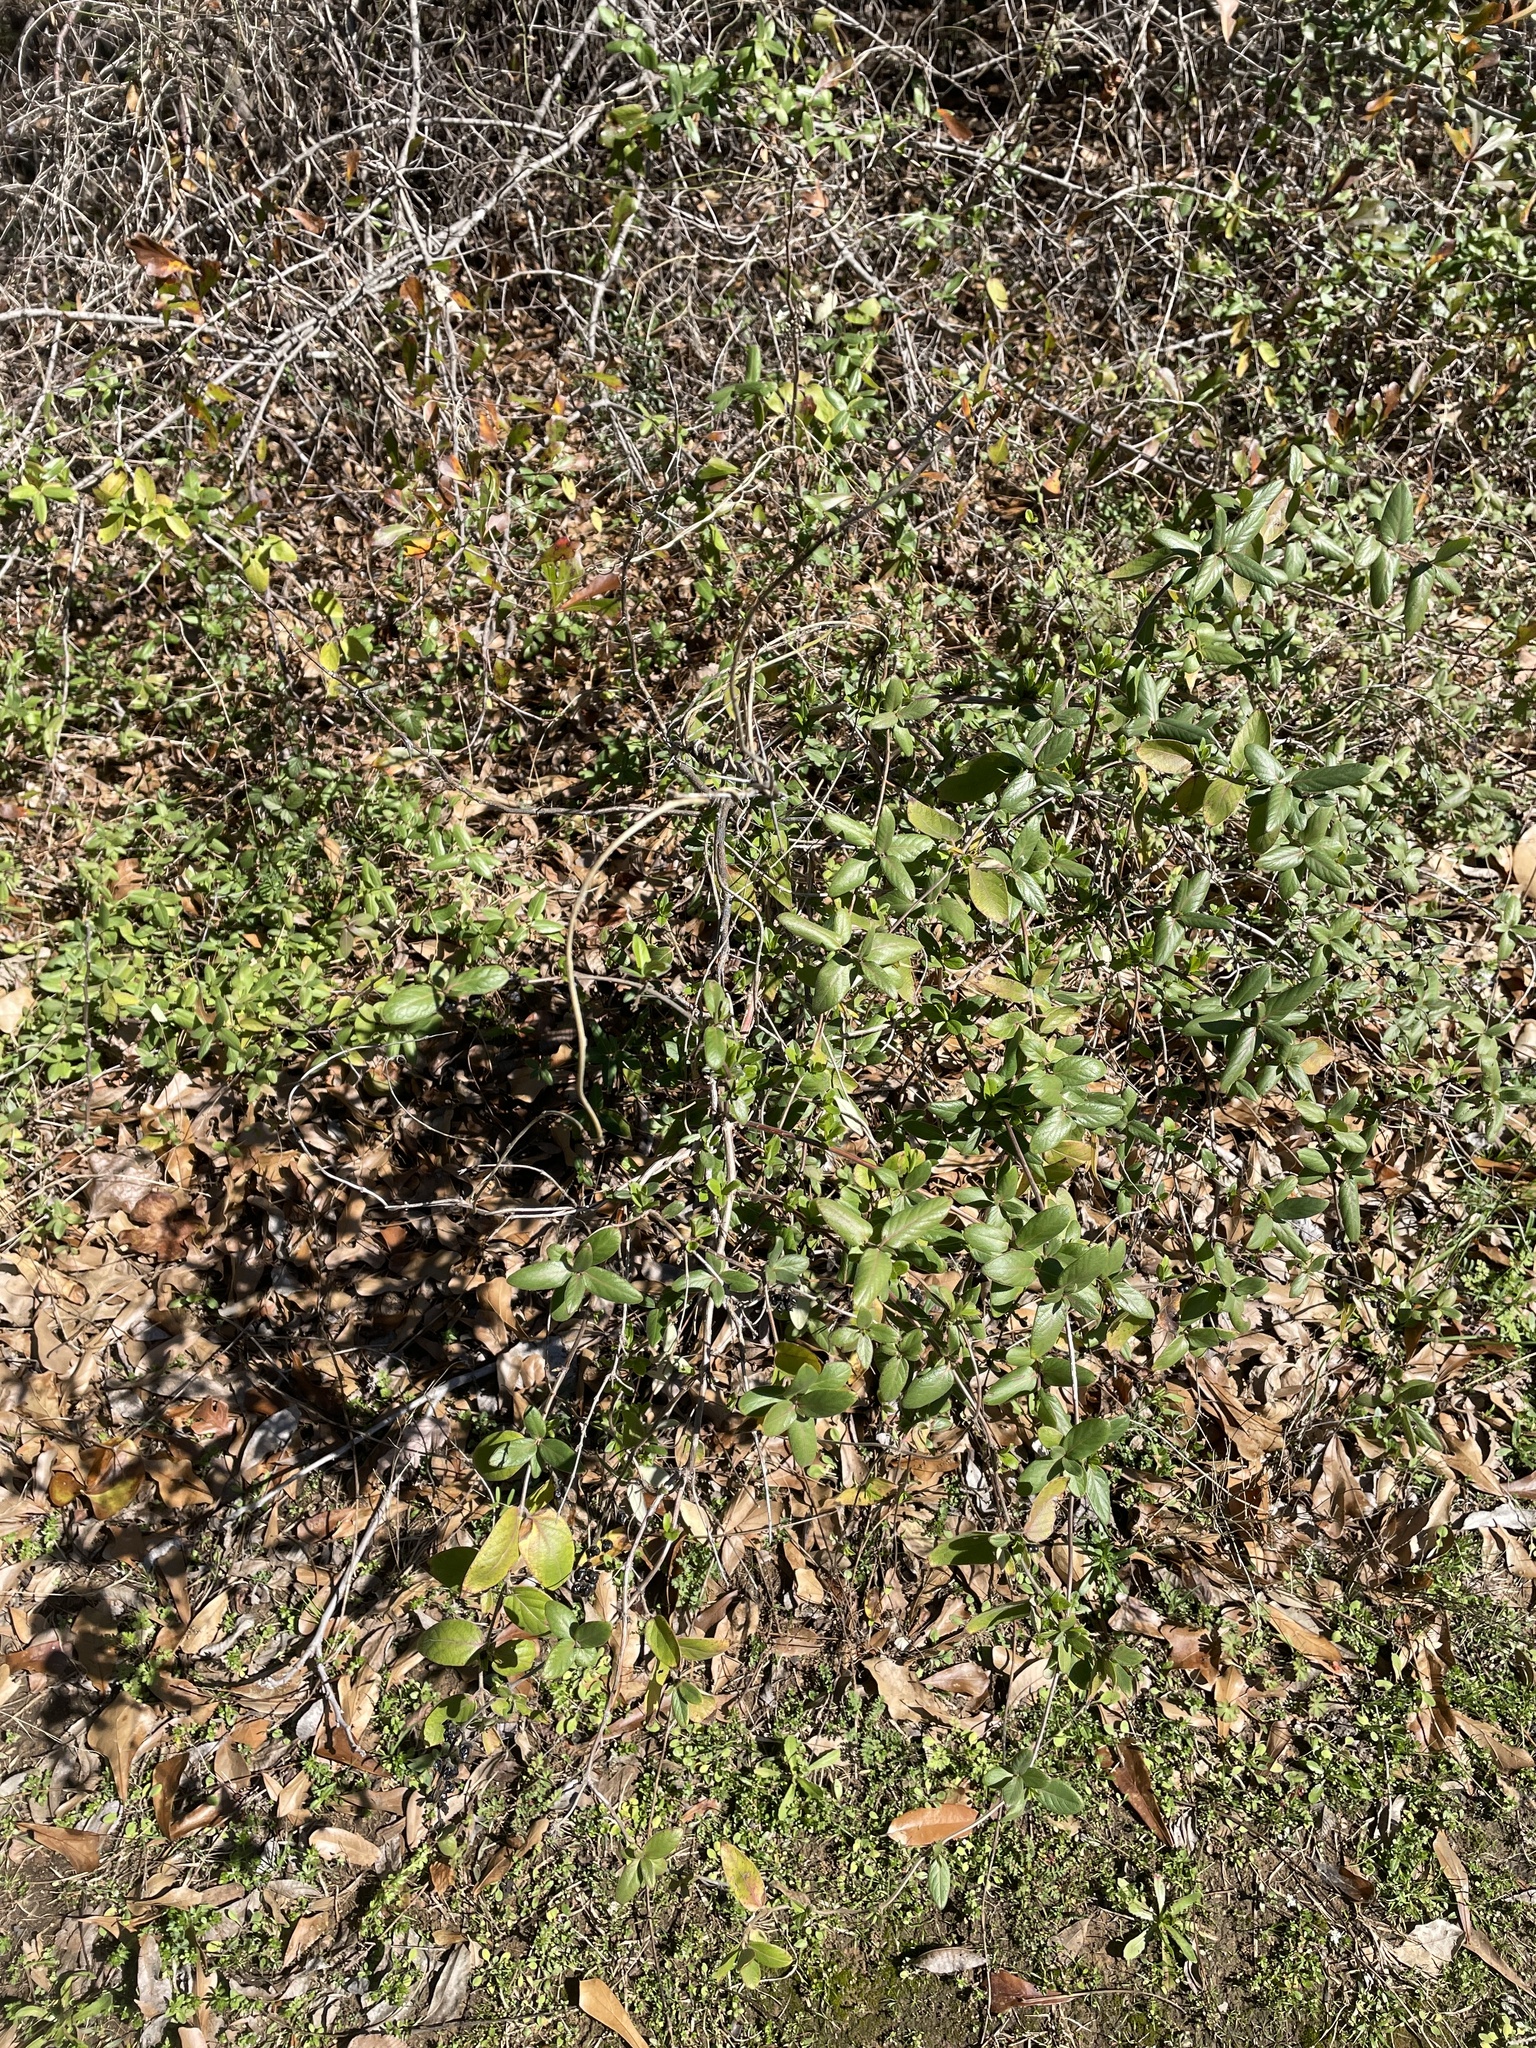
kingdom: Plantae
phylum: Tracheophyta
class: Magnoliopsida
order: Dipsacales
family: Caprifoliaceae
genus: Lonicera
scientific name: Lonicera japonica
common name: Japanese honeysuckle
